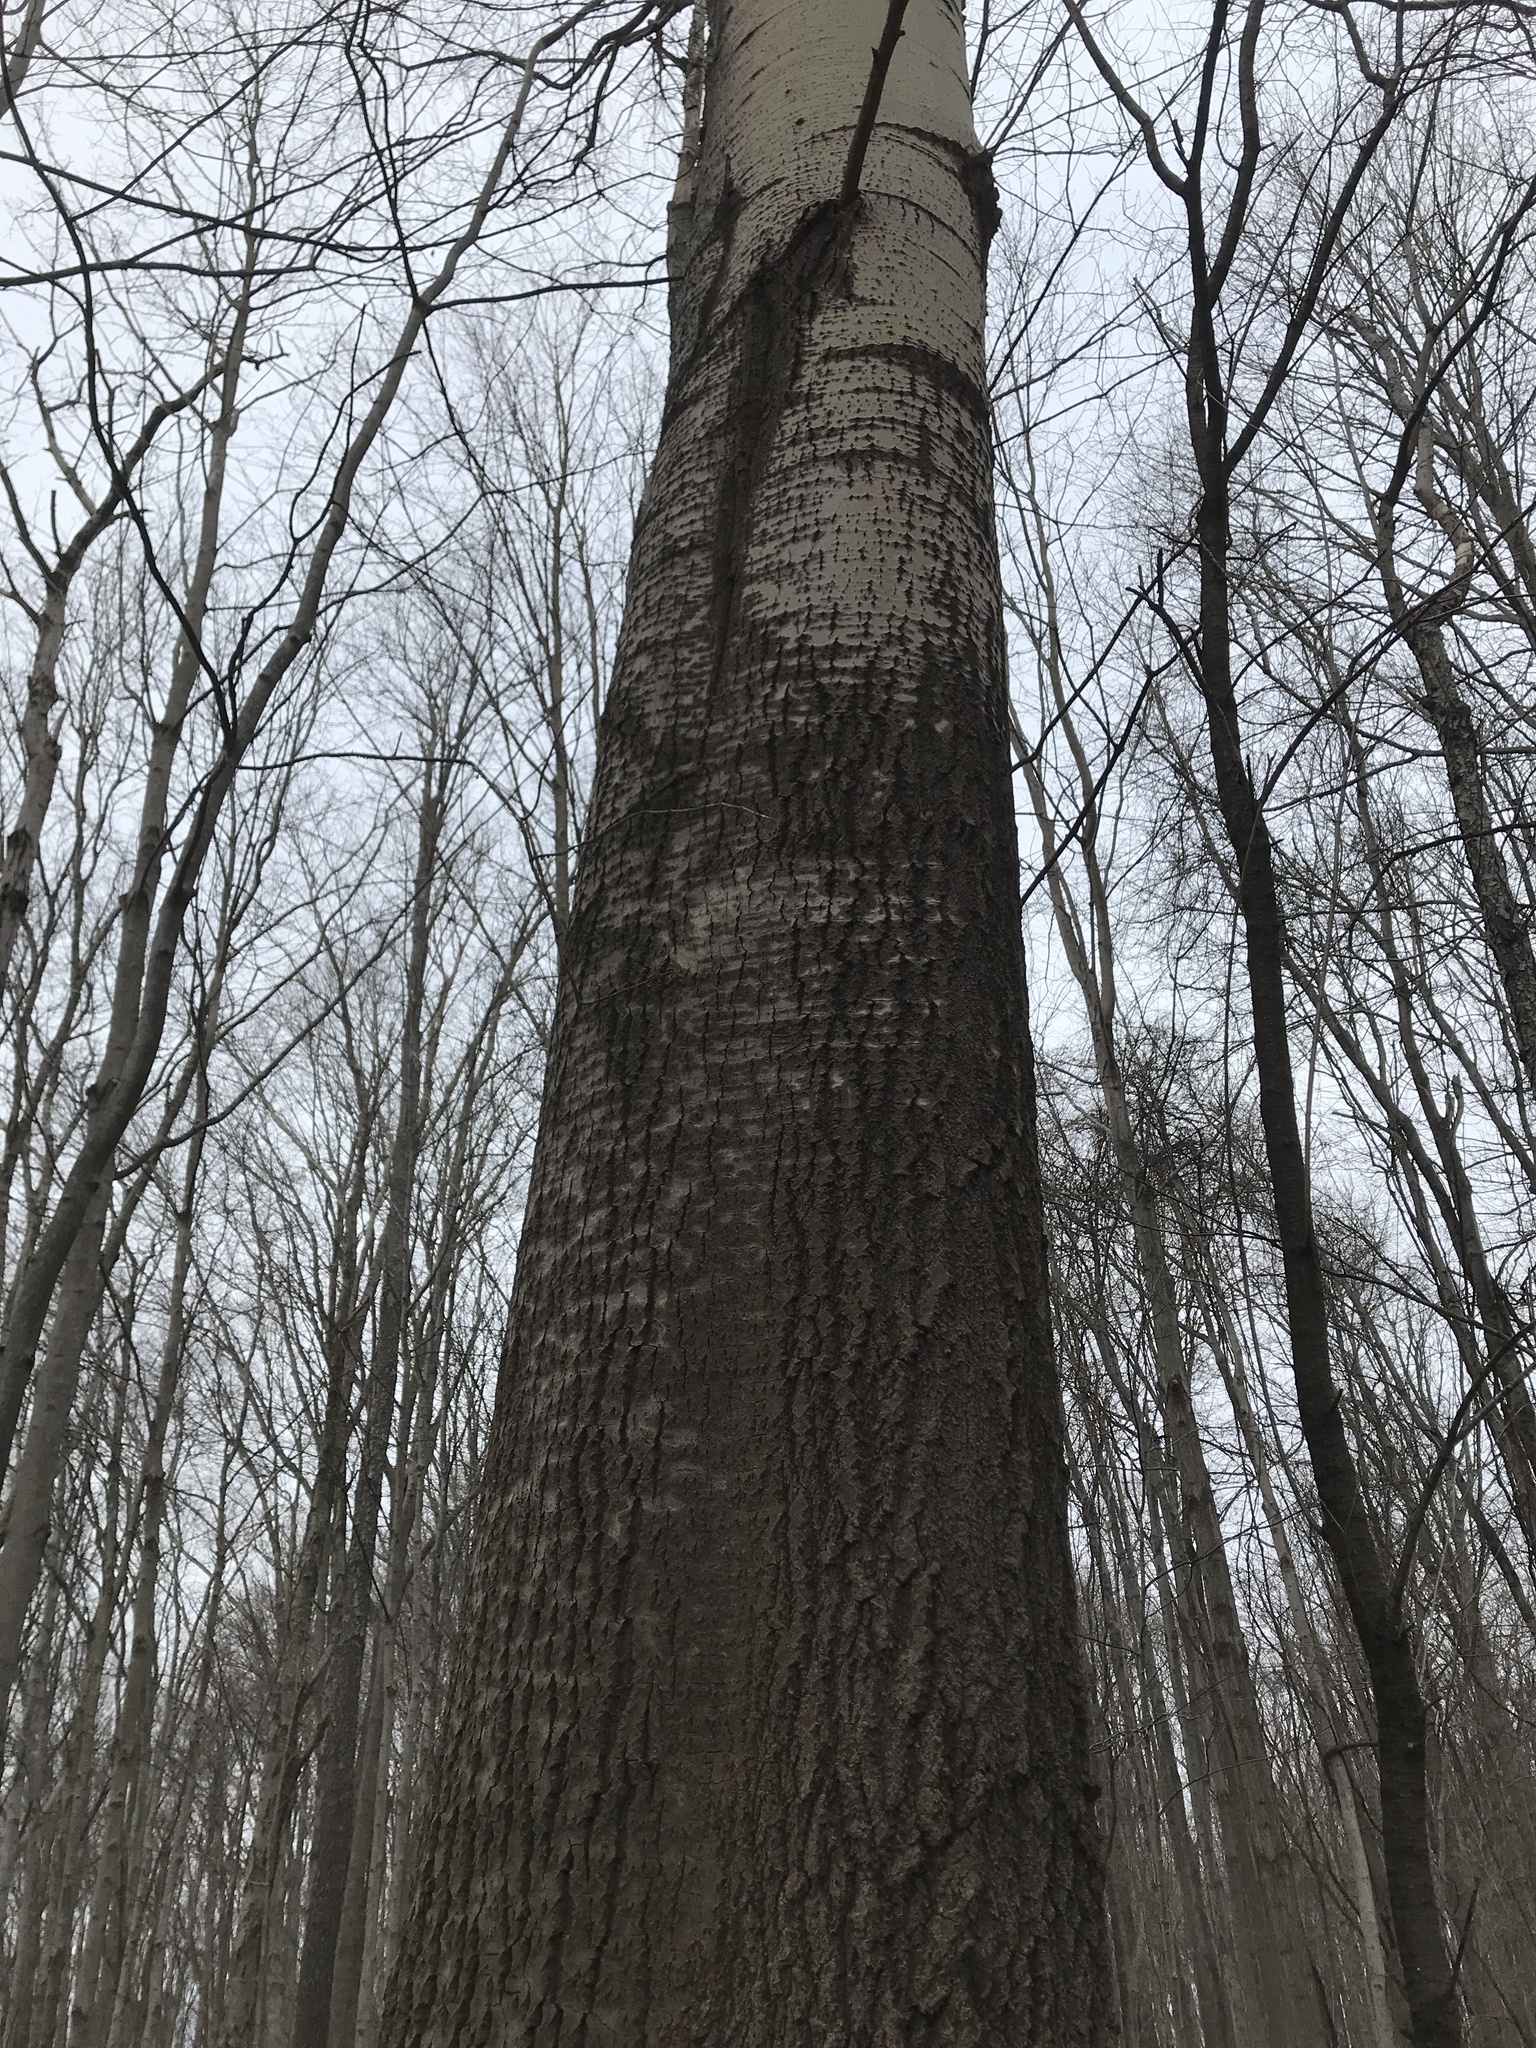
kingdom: Plantae
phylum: Tracheophyta
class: Magnoliopsida
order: Malpighiales
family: Salicaceae
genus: Populus
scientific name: Populus tremuloides
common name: Quaking aspen
